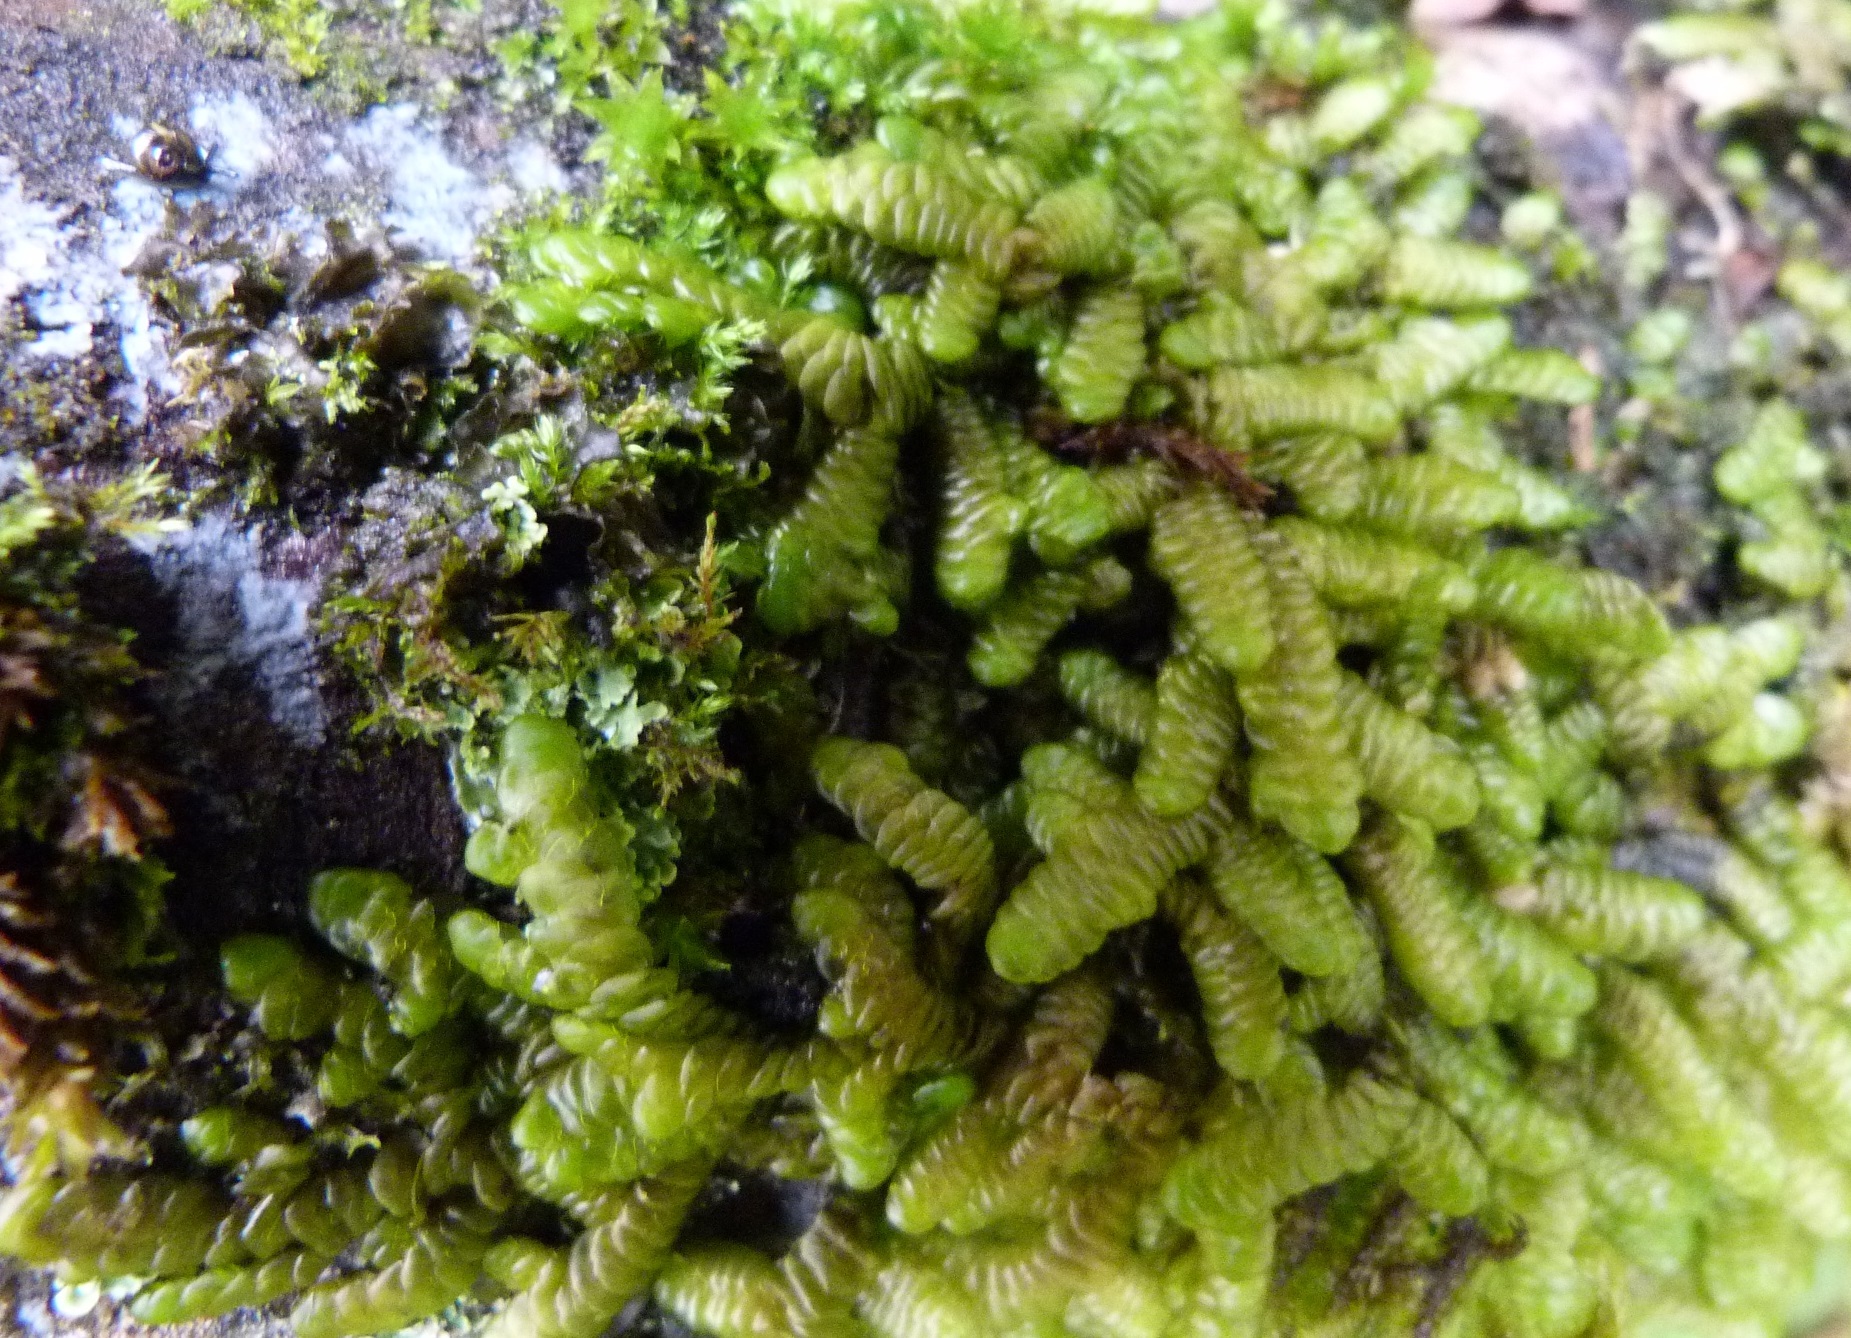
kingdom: Plantae
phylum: Marchantiophyta
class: Jungermanniopsida
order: Porellales
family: Porellaceae
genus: Porella
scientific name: Porella elegantula
